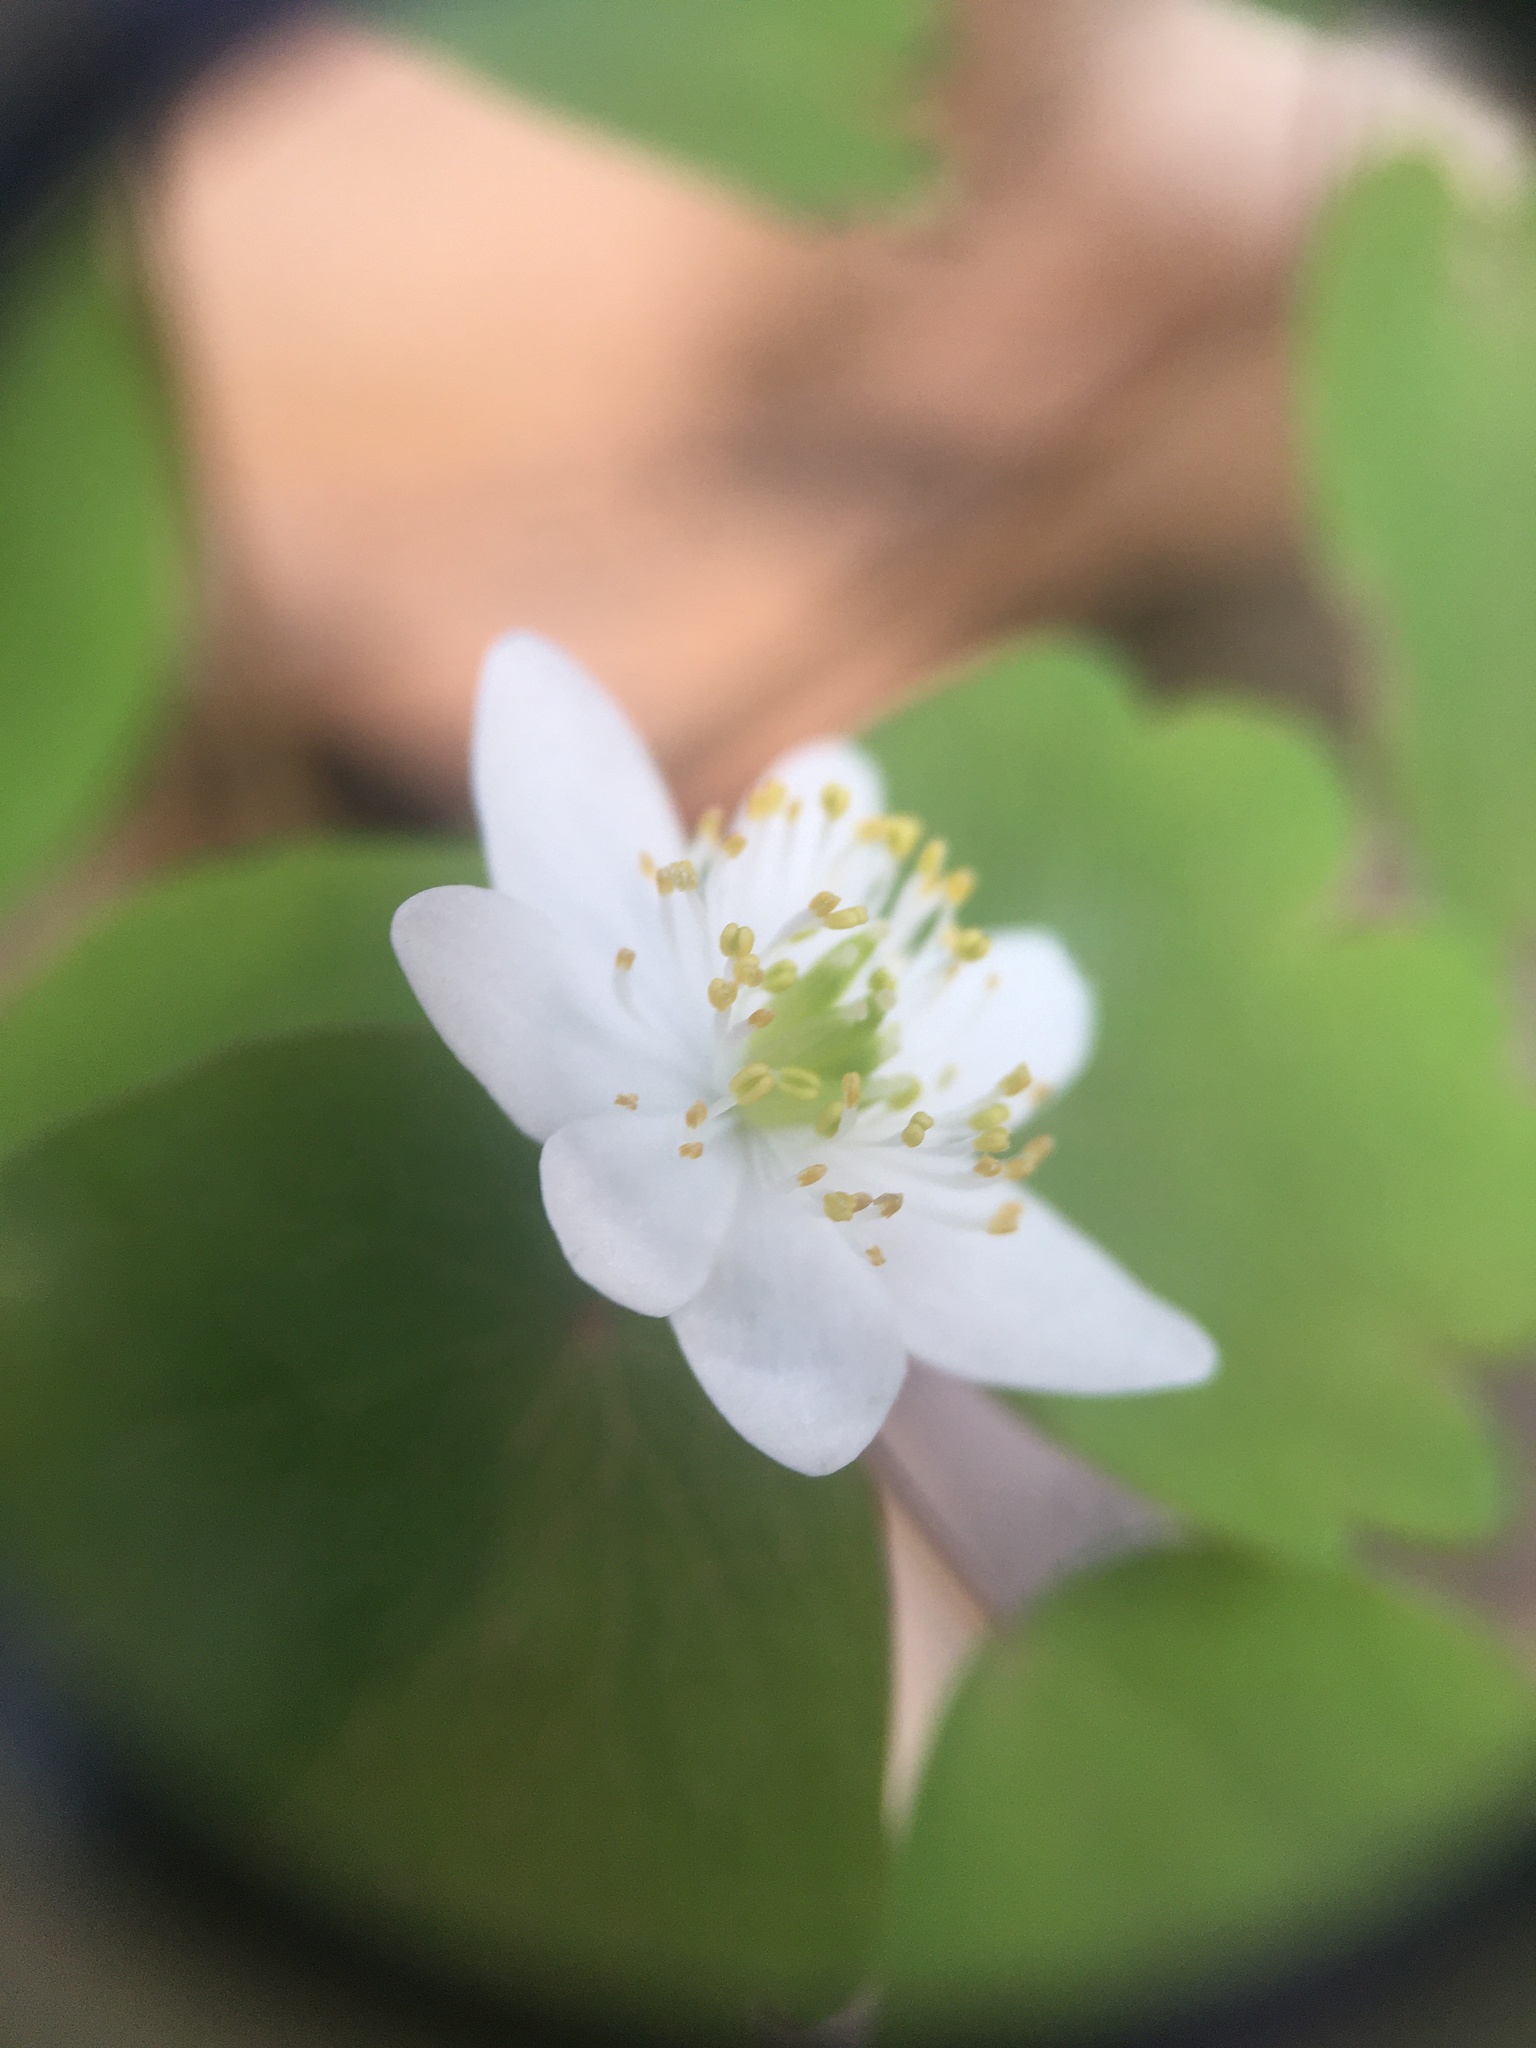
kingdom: Plantae
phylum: Tracheophyta
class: Magnoliopsida
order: Ranunculales
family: Ranunculaceae
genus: Thalictrum
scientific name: Thalictrum thalictroides
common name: Rue-anemone
